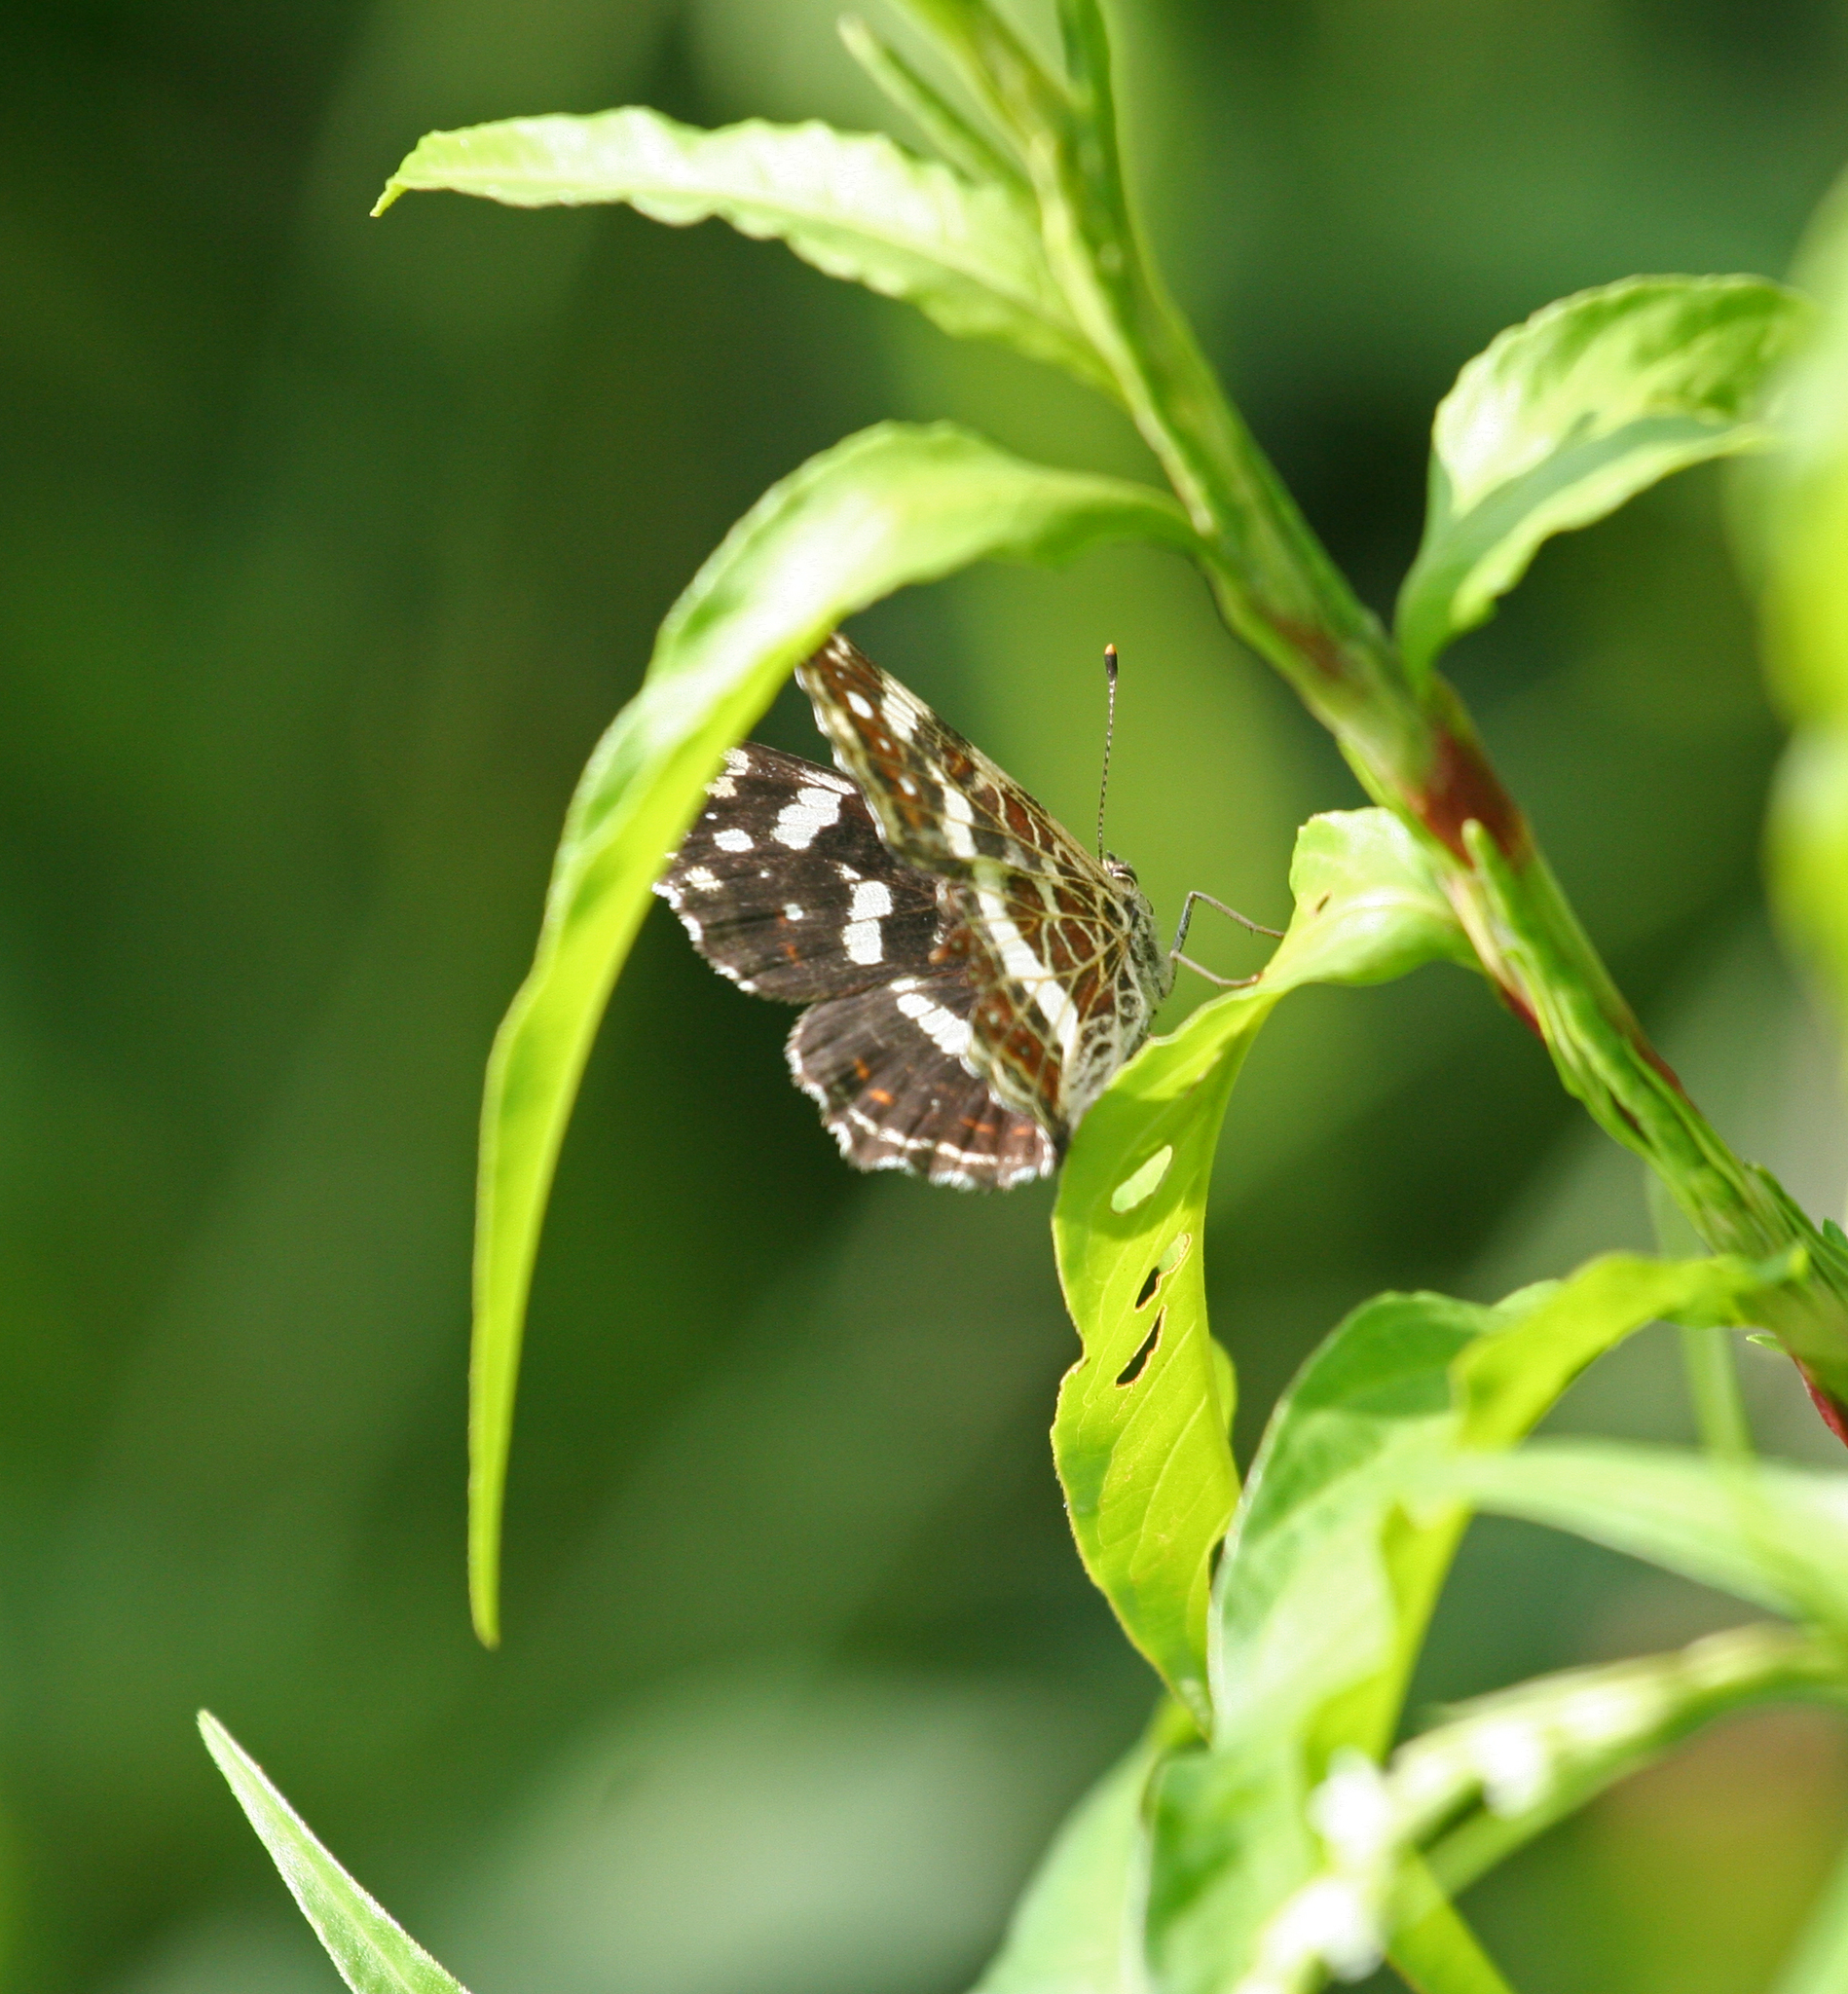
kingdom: Animalia
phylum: Arthropoda
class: Insecta
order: Lepidoptera
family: Nymphalidae
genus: Araschnia
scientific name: Araschnia levana
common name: Map butterfly
